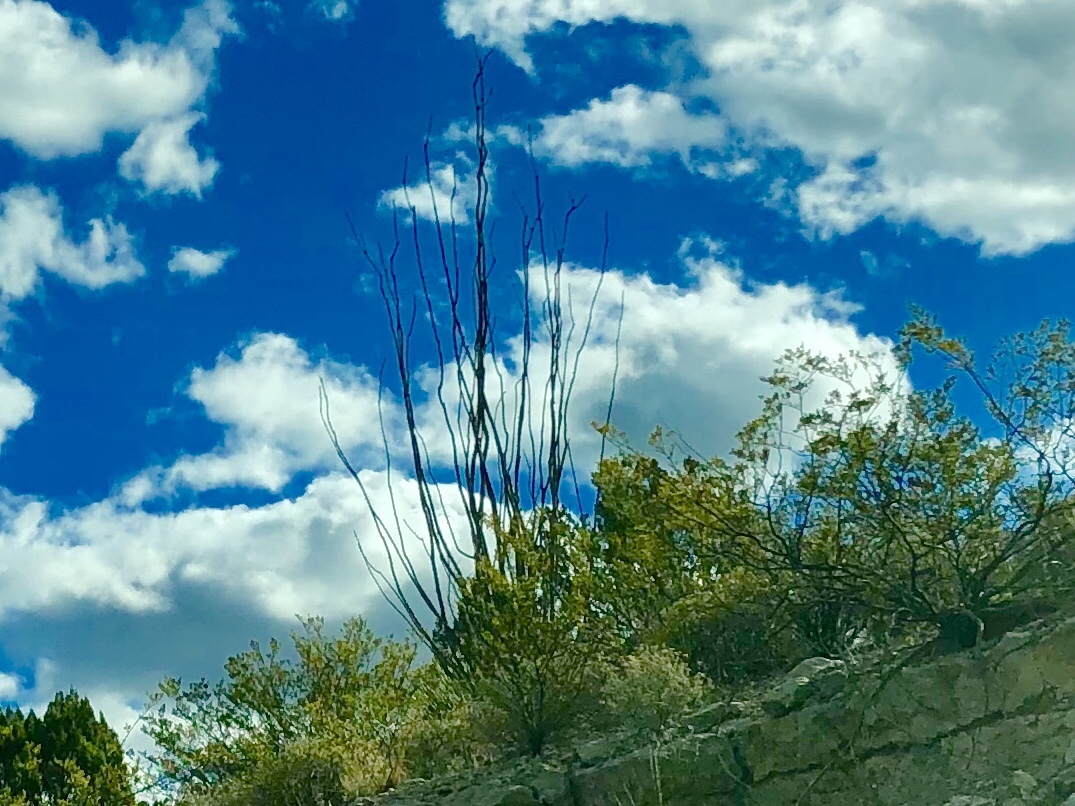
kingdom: Plantae
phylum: Tracheophyta
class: Magnoliopsida
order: Ericales
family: Fouquieriaceae
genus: Fouquieria
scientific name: Fouquieria splendens
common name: Vine-cactus
